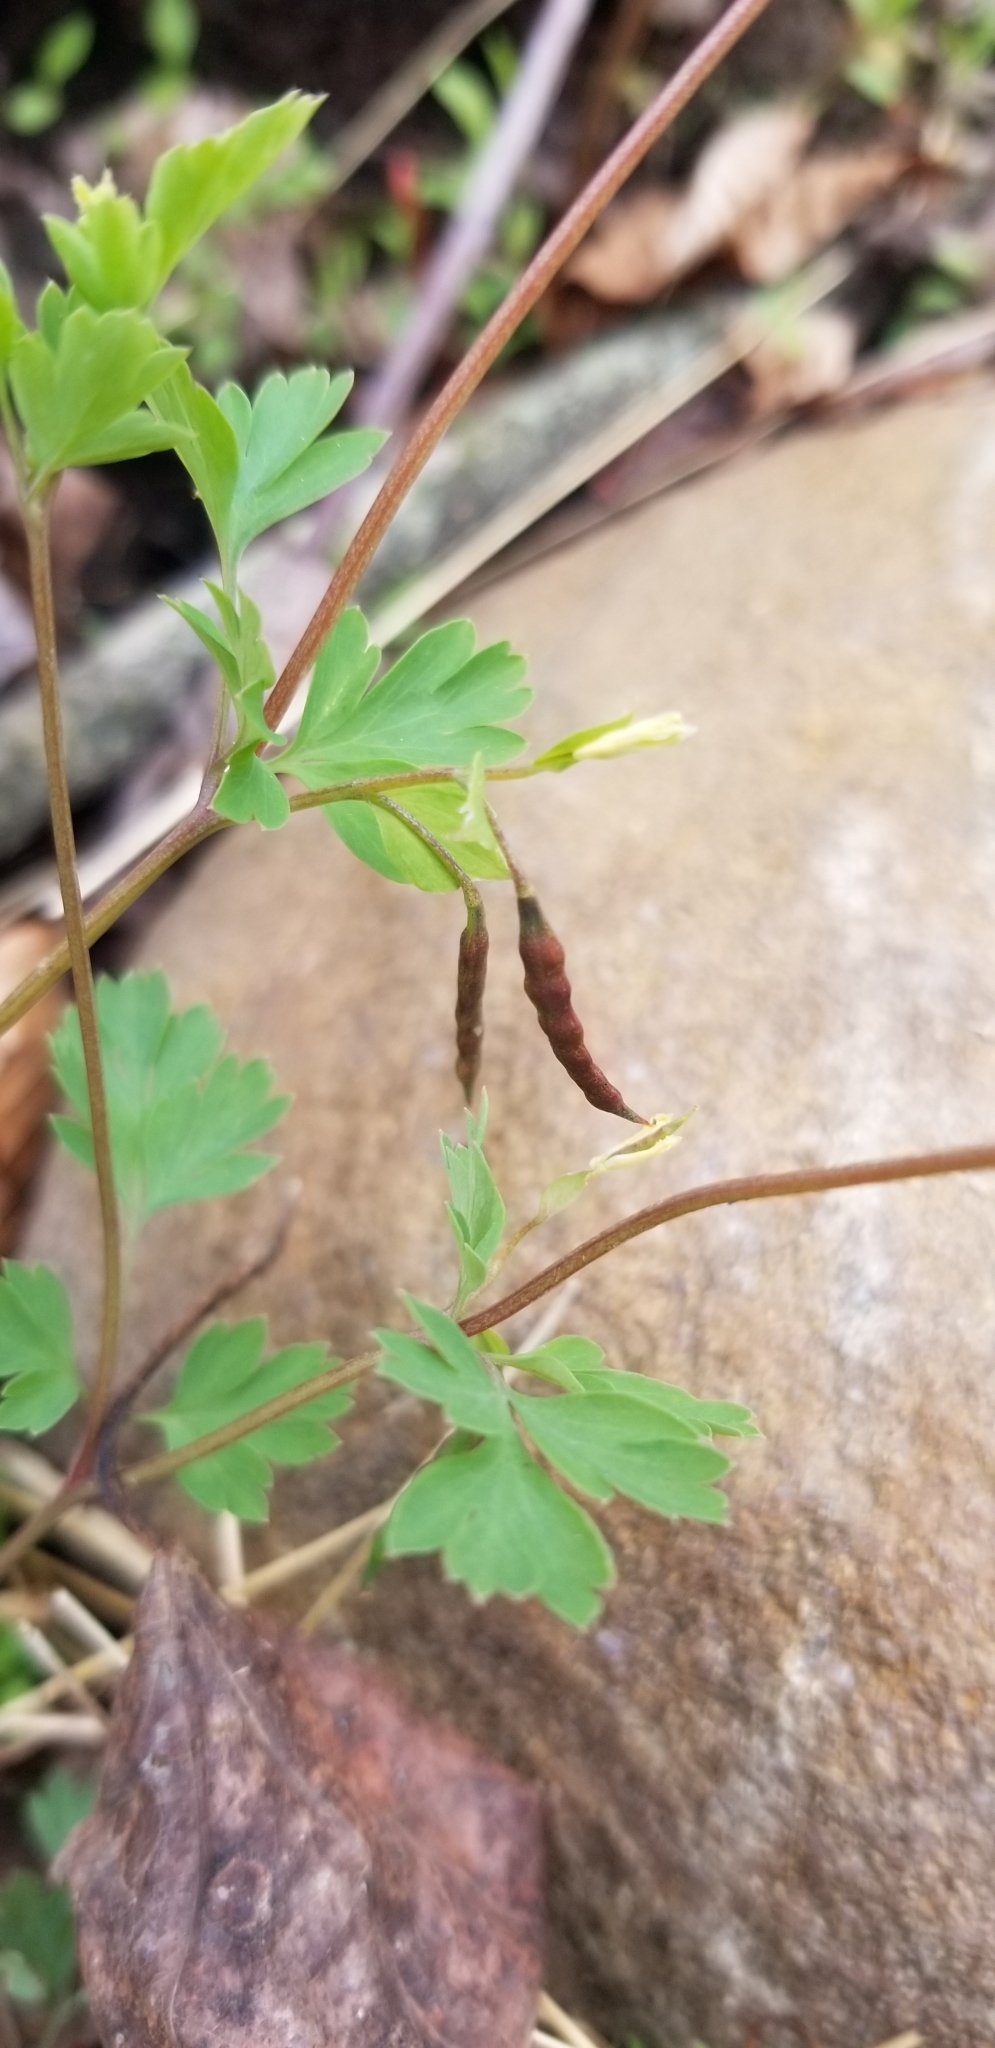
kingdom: Plantae
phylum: Tracheophyta
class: Magnoliopsida
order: Ranunculales
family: Papaveraceae
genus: Corydalis
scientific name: Corydalis flavula
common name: Yellow corydalis
